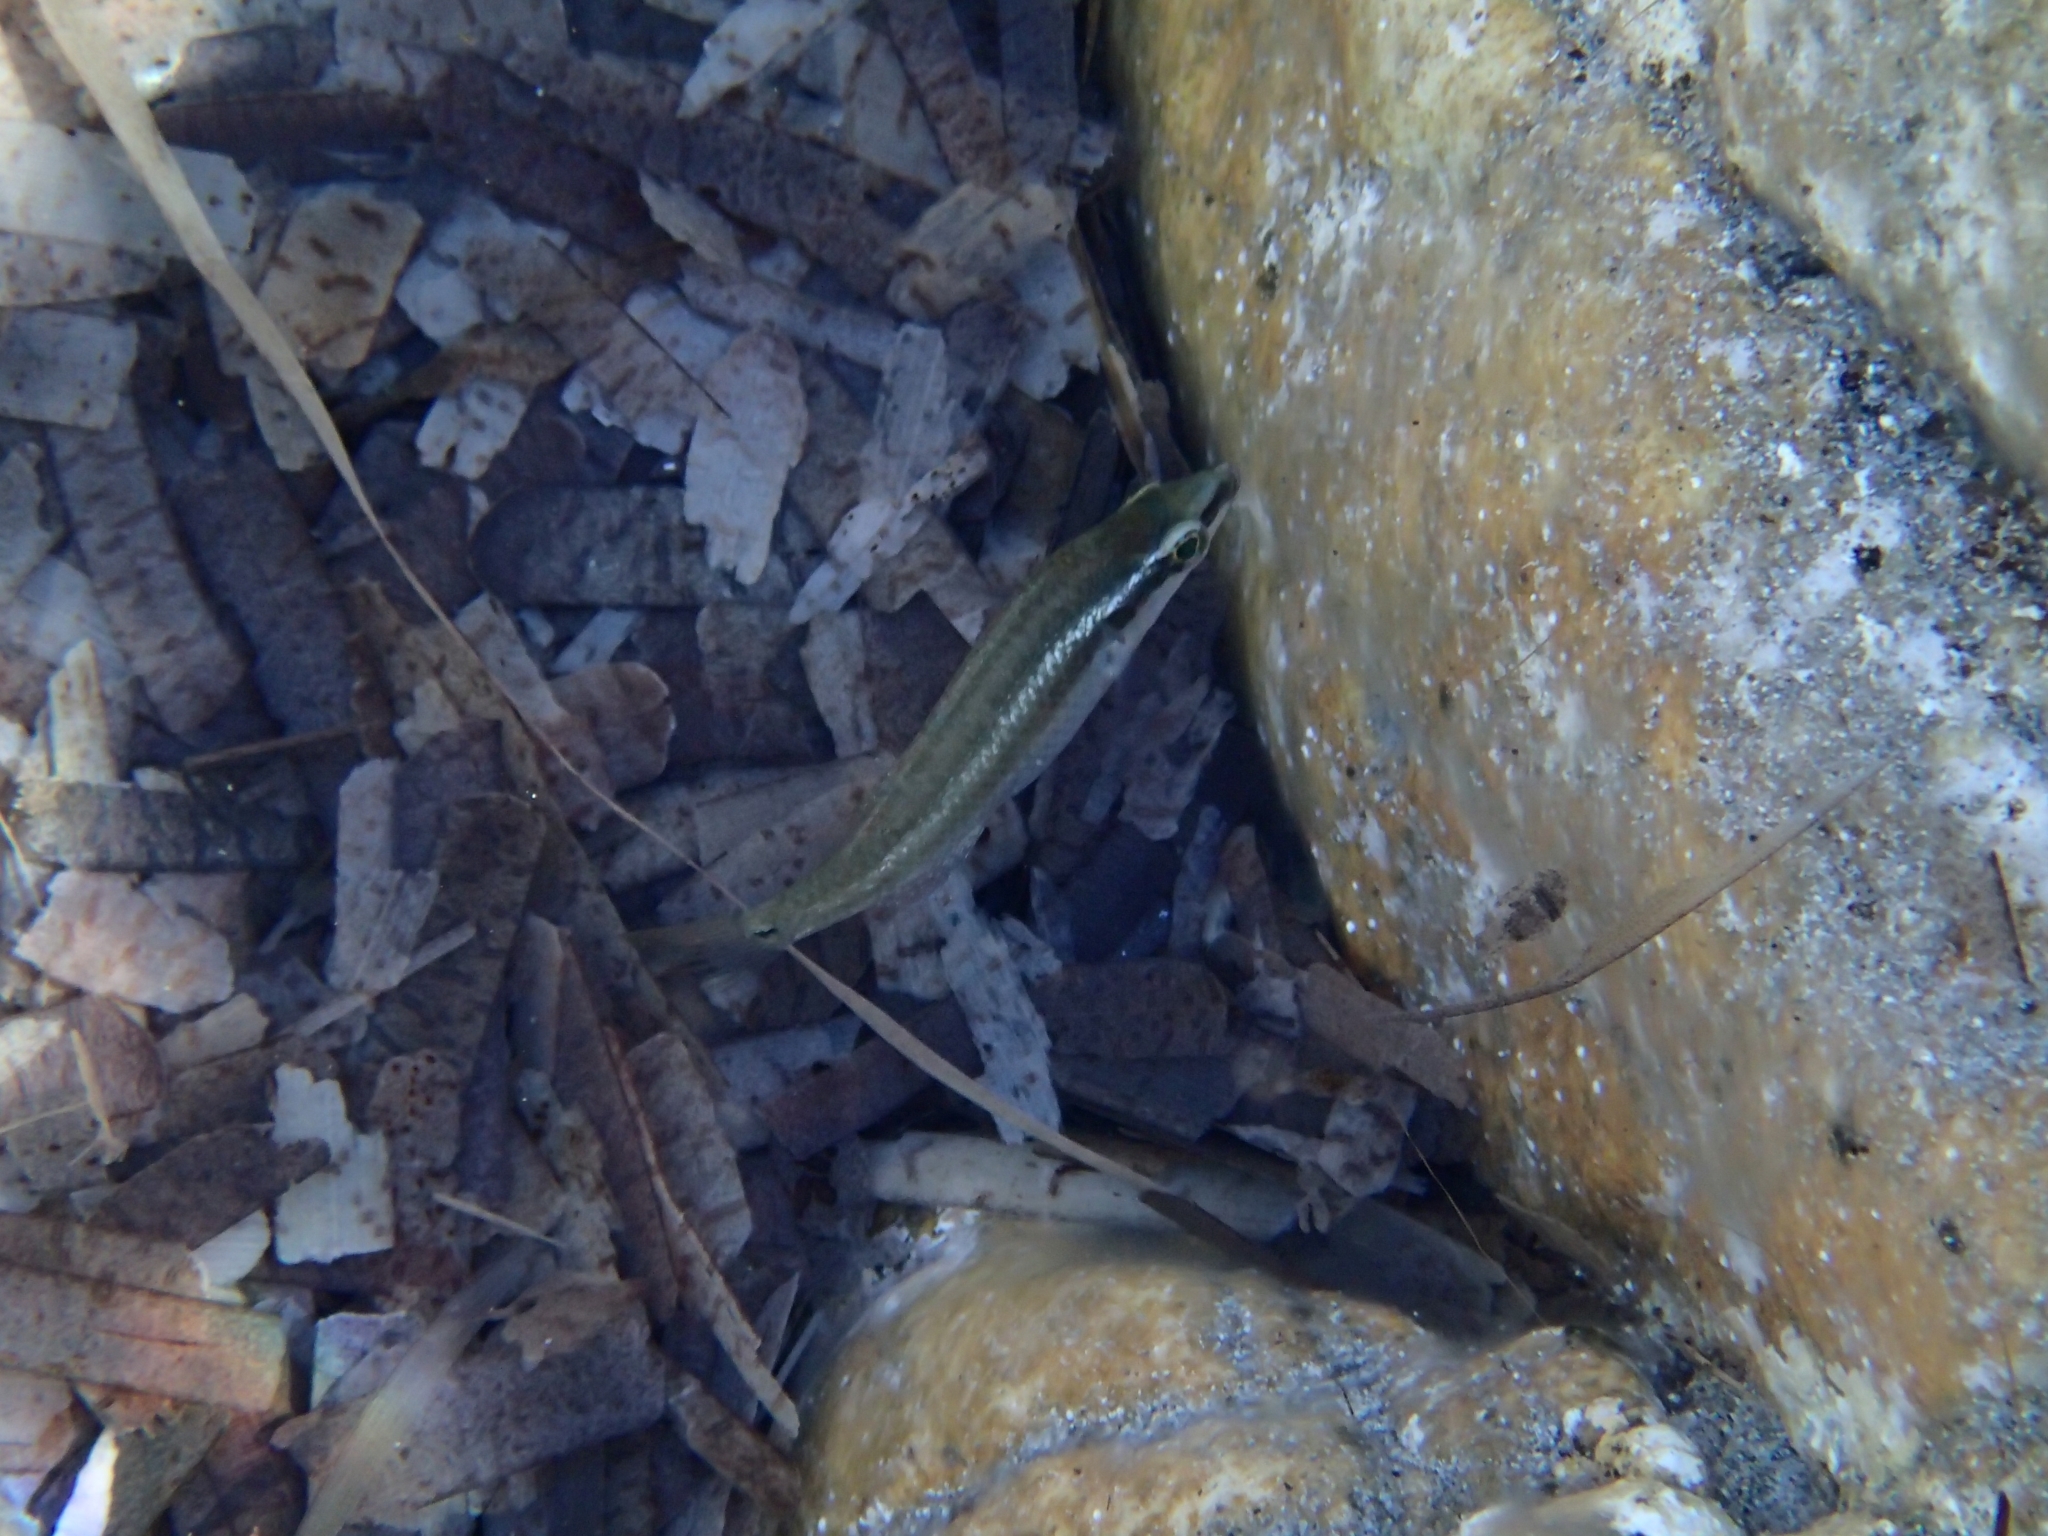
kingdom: Animalia
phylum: Chordata
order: Perciformes
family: Labridae
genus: Symphodus
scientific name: Symphodus ocellatus
